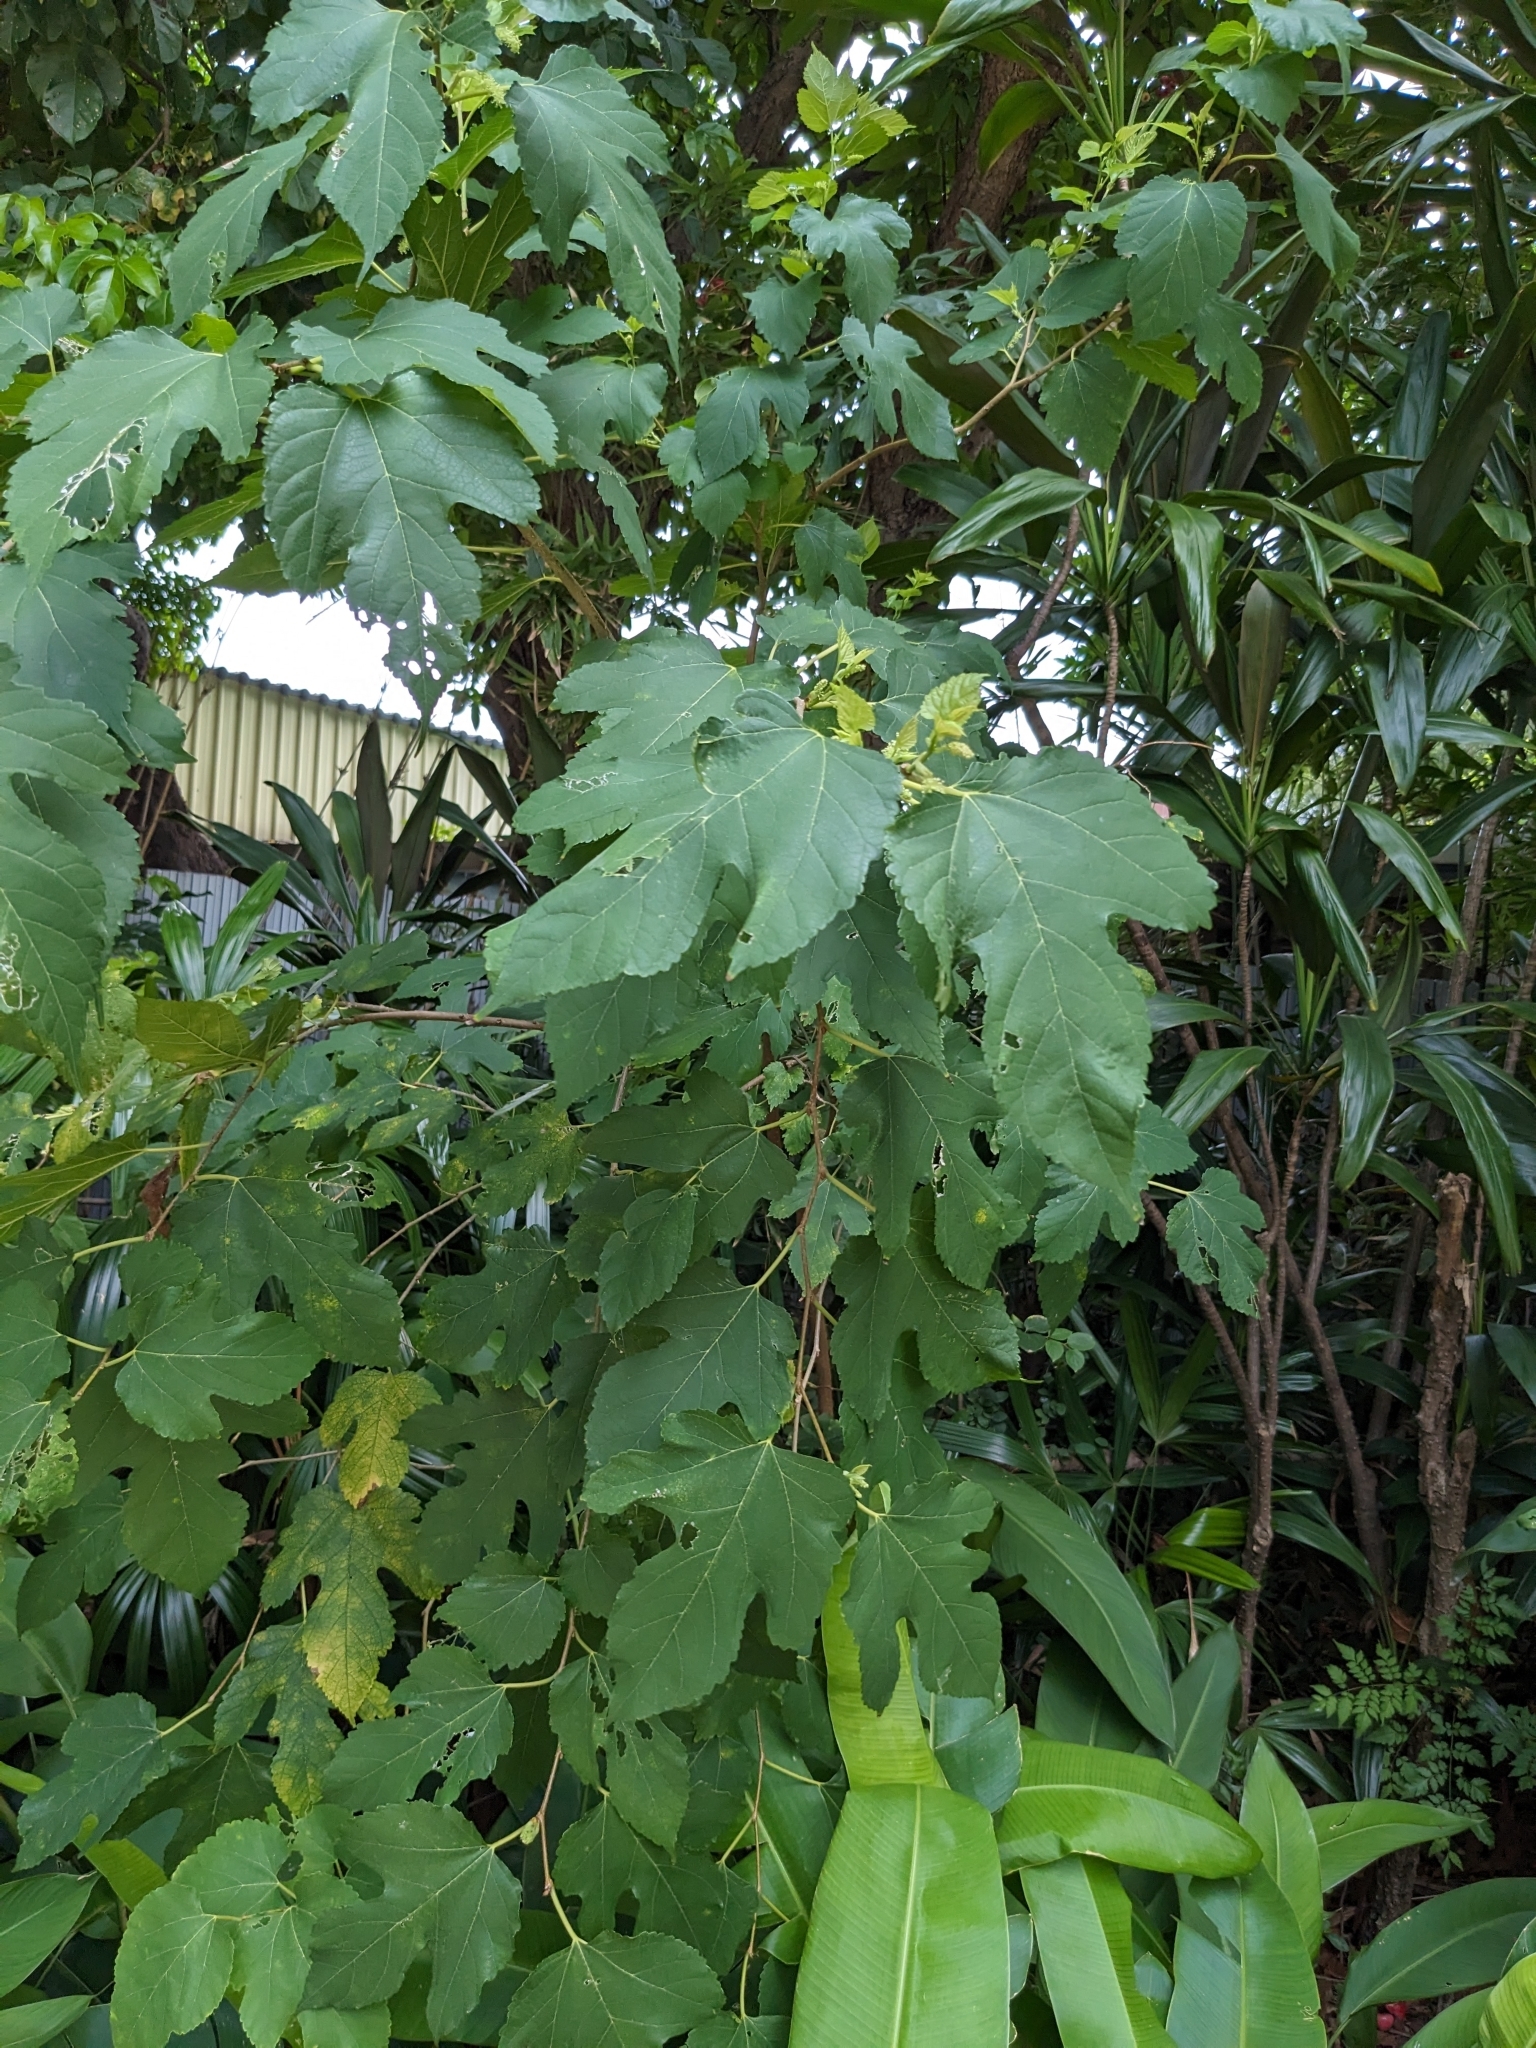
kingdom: Plantae
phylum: Tracheophyta
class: Magnoliopsida
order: Rosales
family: Moraceae
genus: Morus
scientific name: Morus indica
